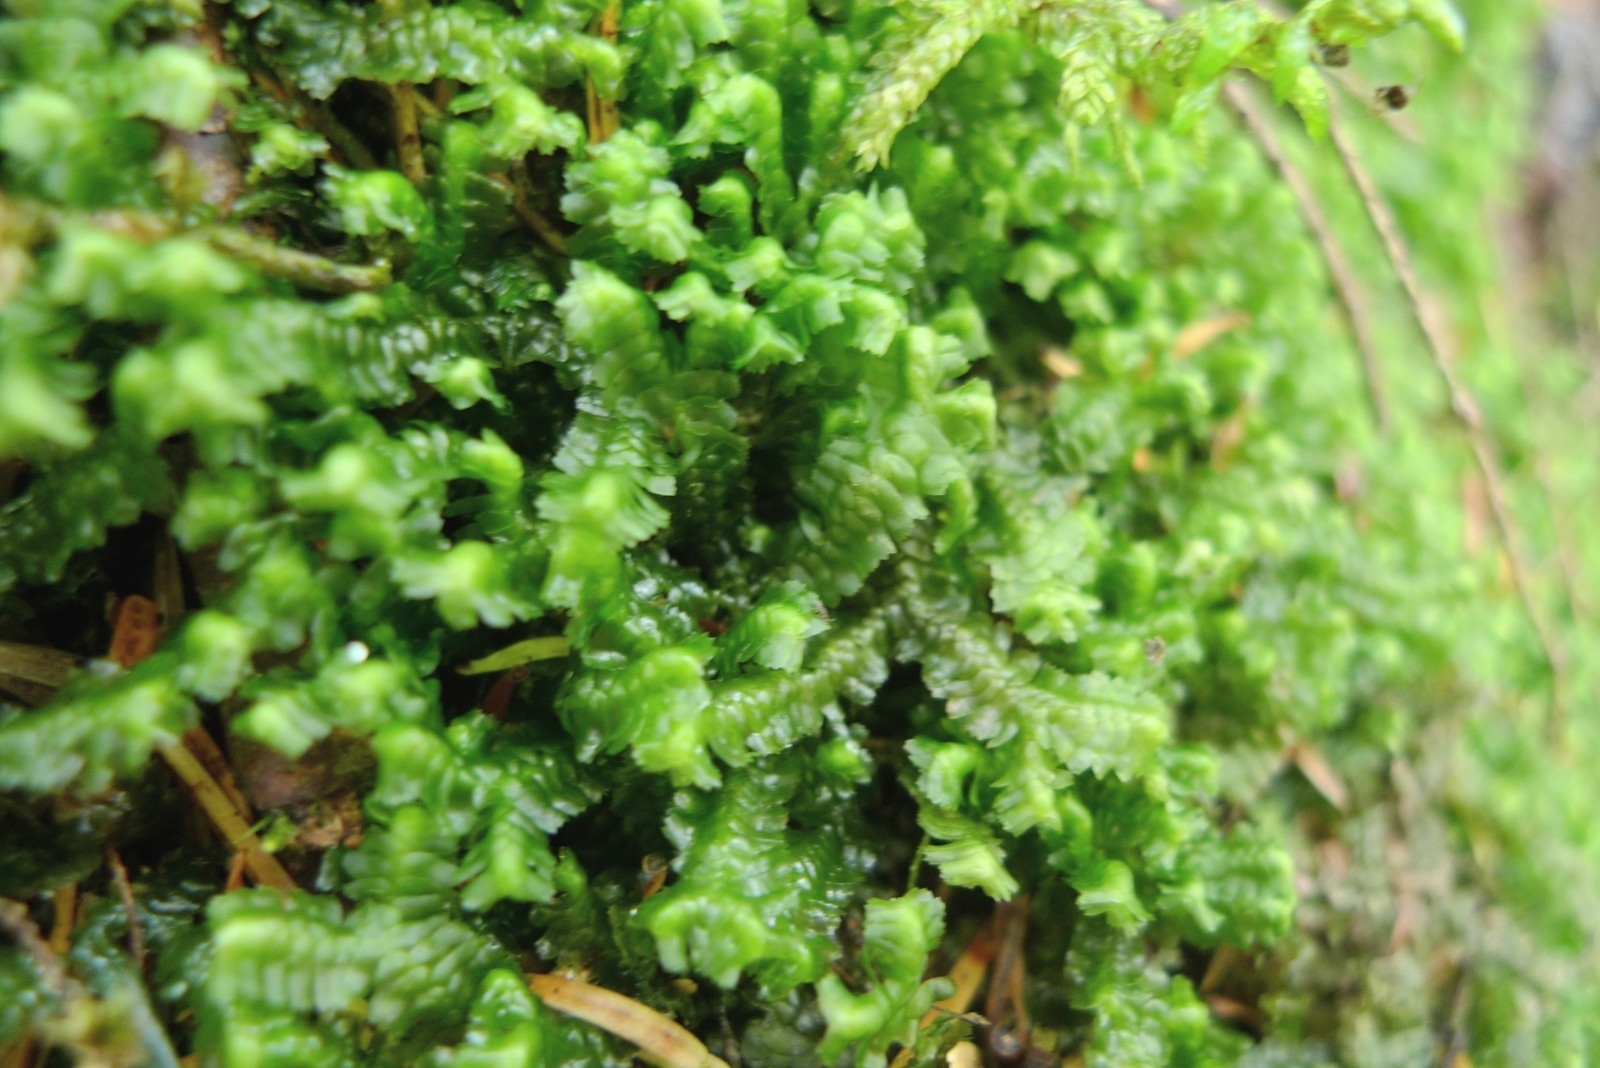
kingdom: Plantae
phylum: Marchantiophyta
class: Jungermanniopsida
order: Jungermanniales
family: Lepidoziaceae
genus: Bazzania
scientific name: Bazzania trilobata
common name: Three-lobed whipwort
